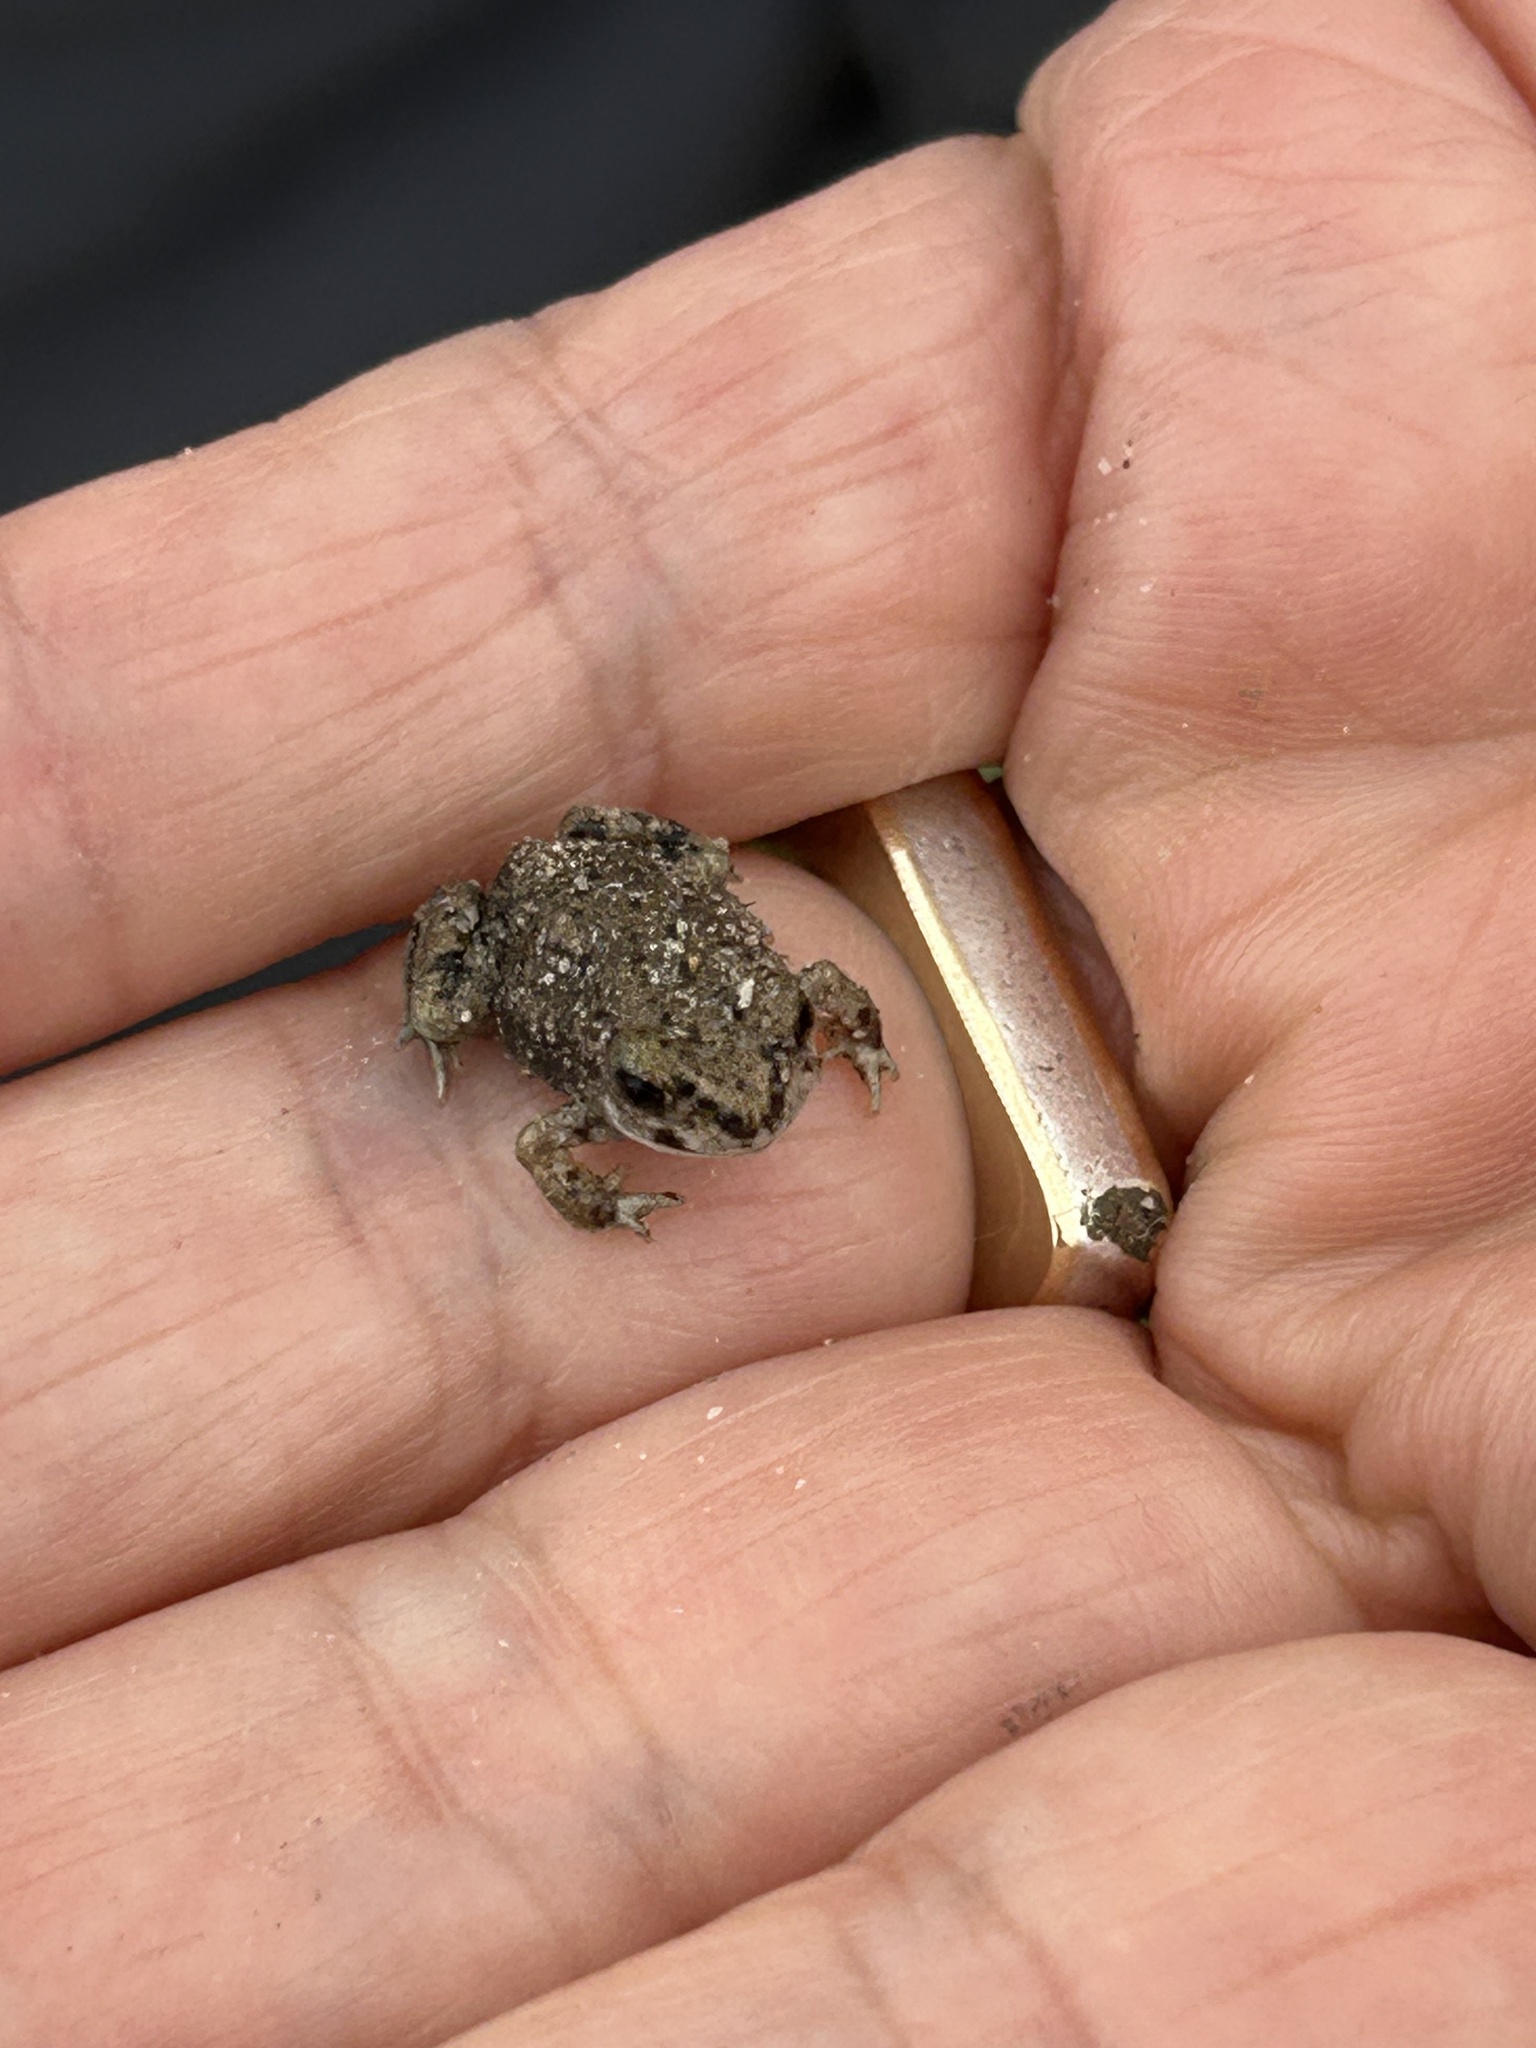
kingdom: Animalia
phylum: Chordata
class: Amphibia
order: Anura
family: Bufonidae
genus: Anaxyrus
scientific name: Anaxyrus punctatus
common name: Red-spotted toad
